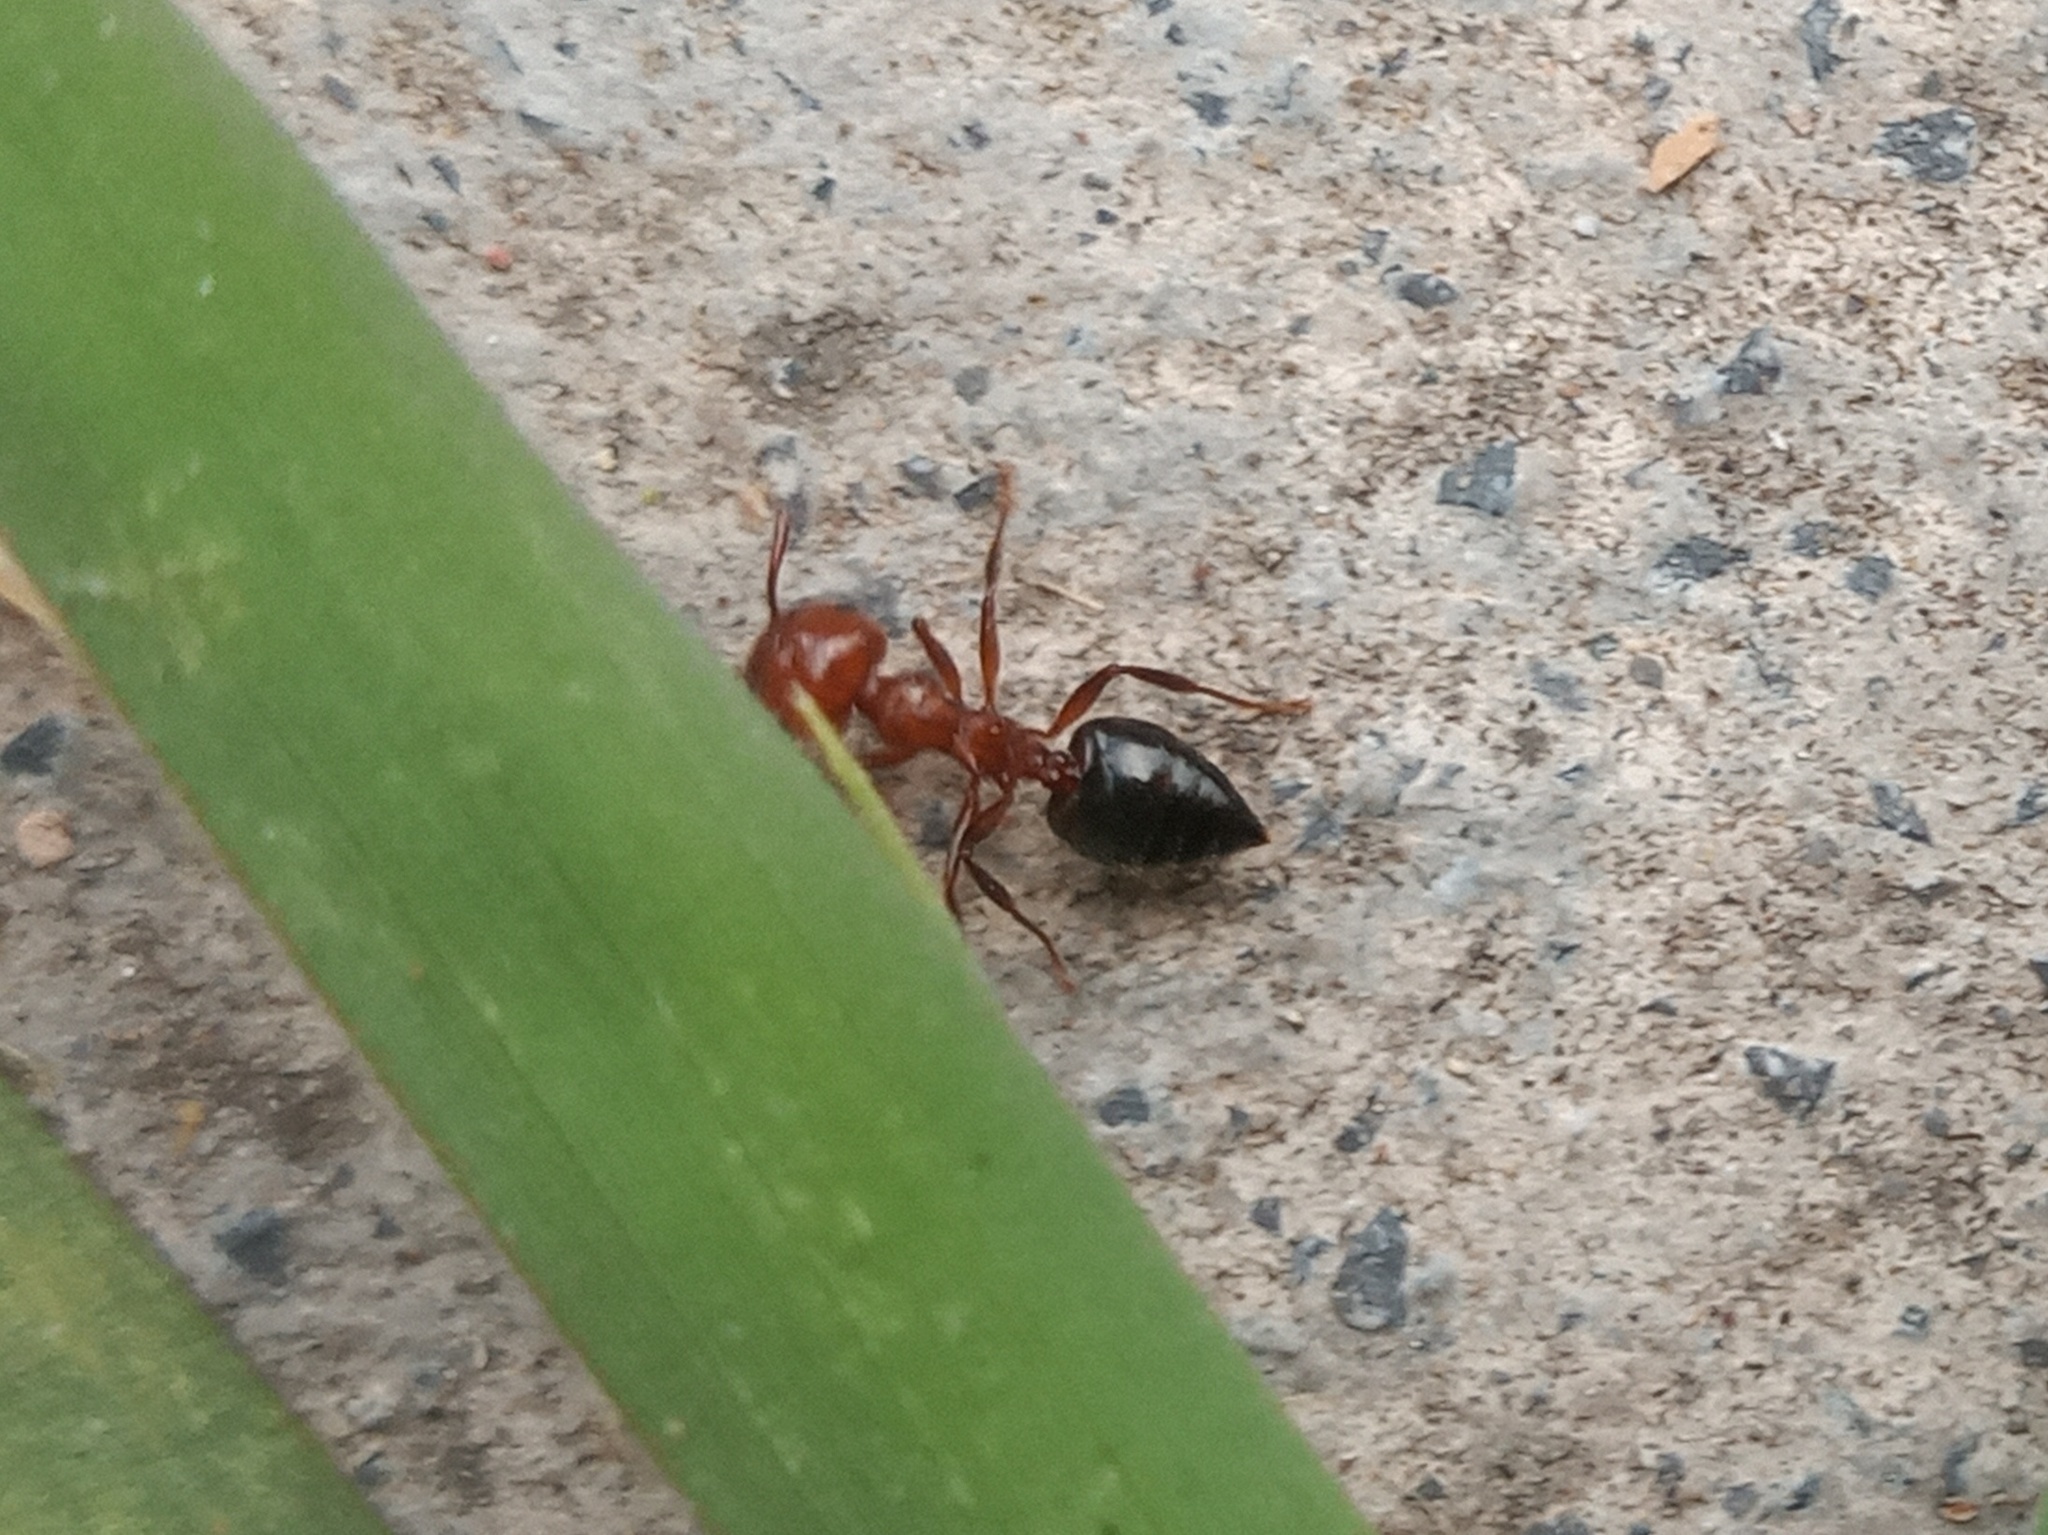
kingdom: Animalia
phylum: Arthropoda
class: Insecta
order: Hymenoptera
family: Formicidae
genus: Crematogaster
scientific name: Crematogaster laeviuscula
